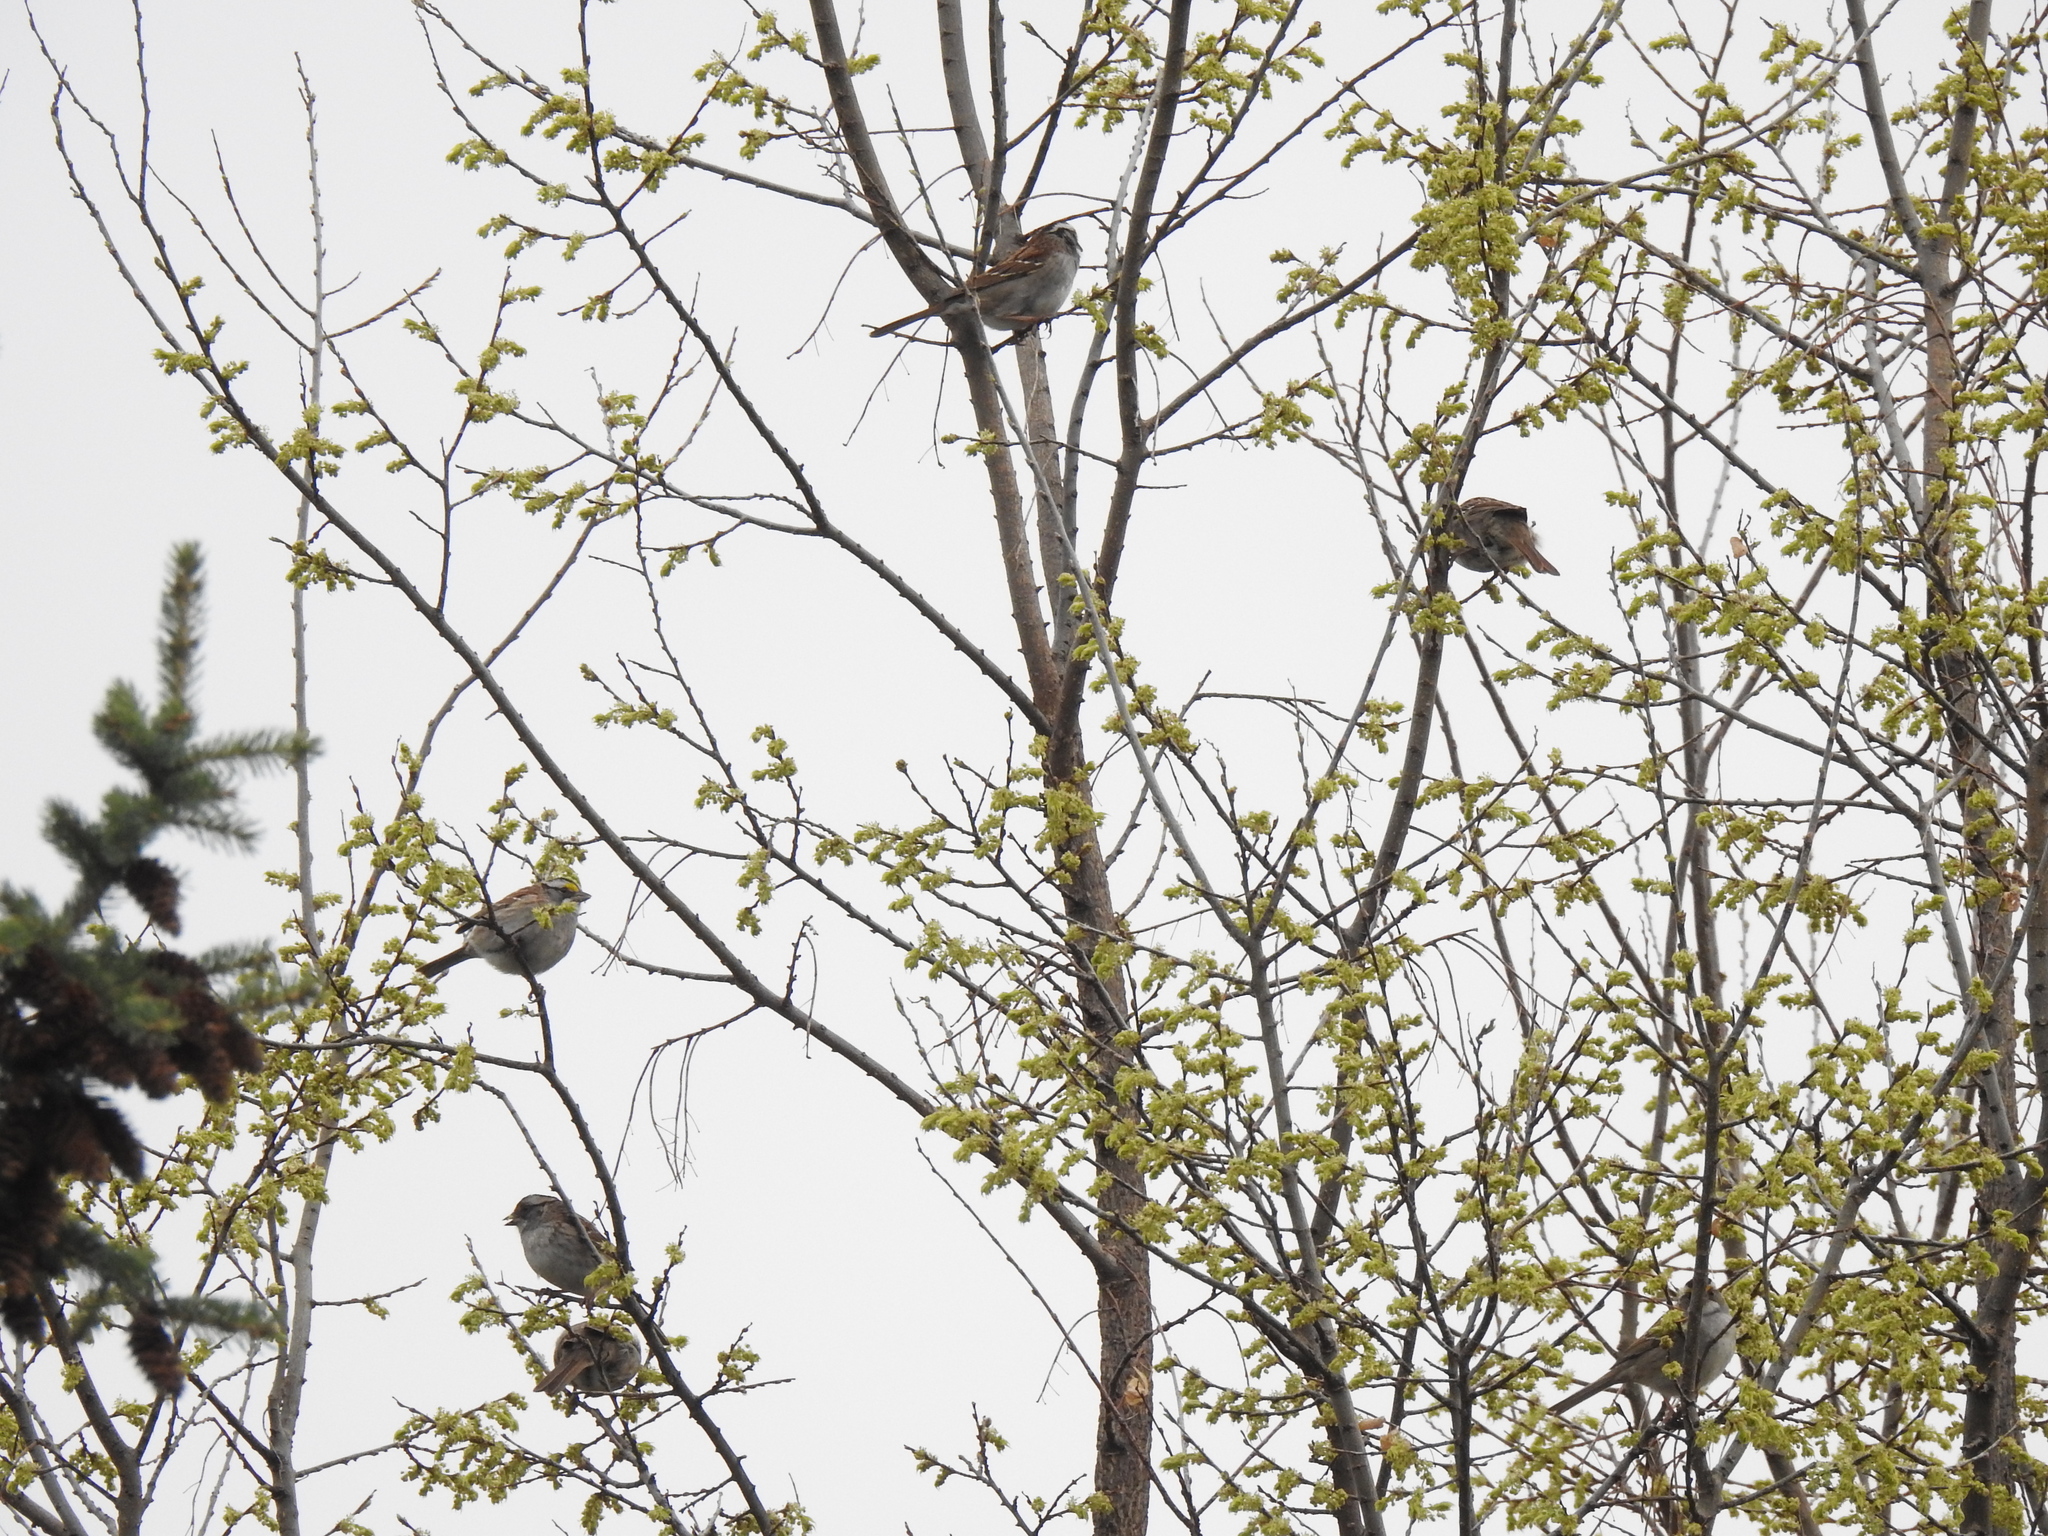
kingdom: Animalia
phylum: Chordata
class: Aves
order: Passeriformes
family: Passerellidae
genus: Zonotrichia
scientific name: Zonotrichia albicollis
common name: White-throated sparrow
